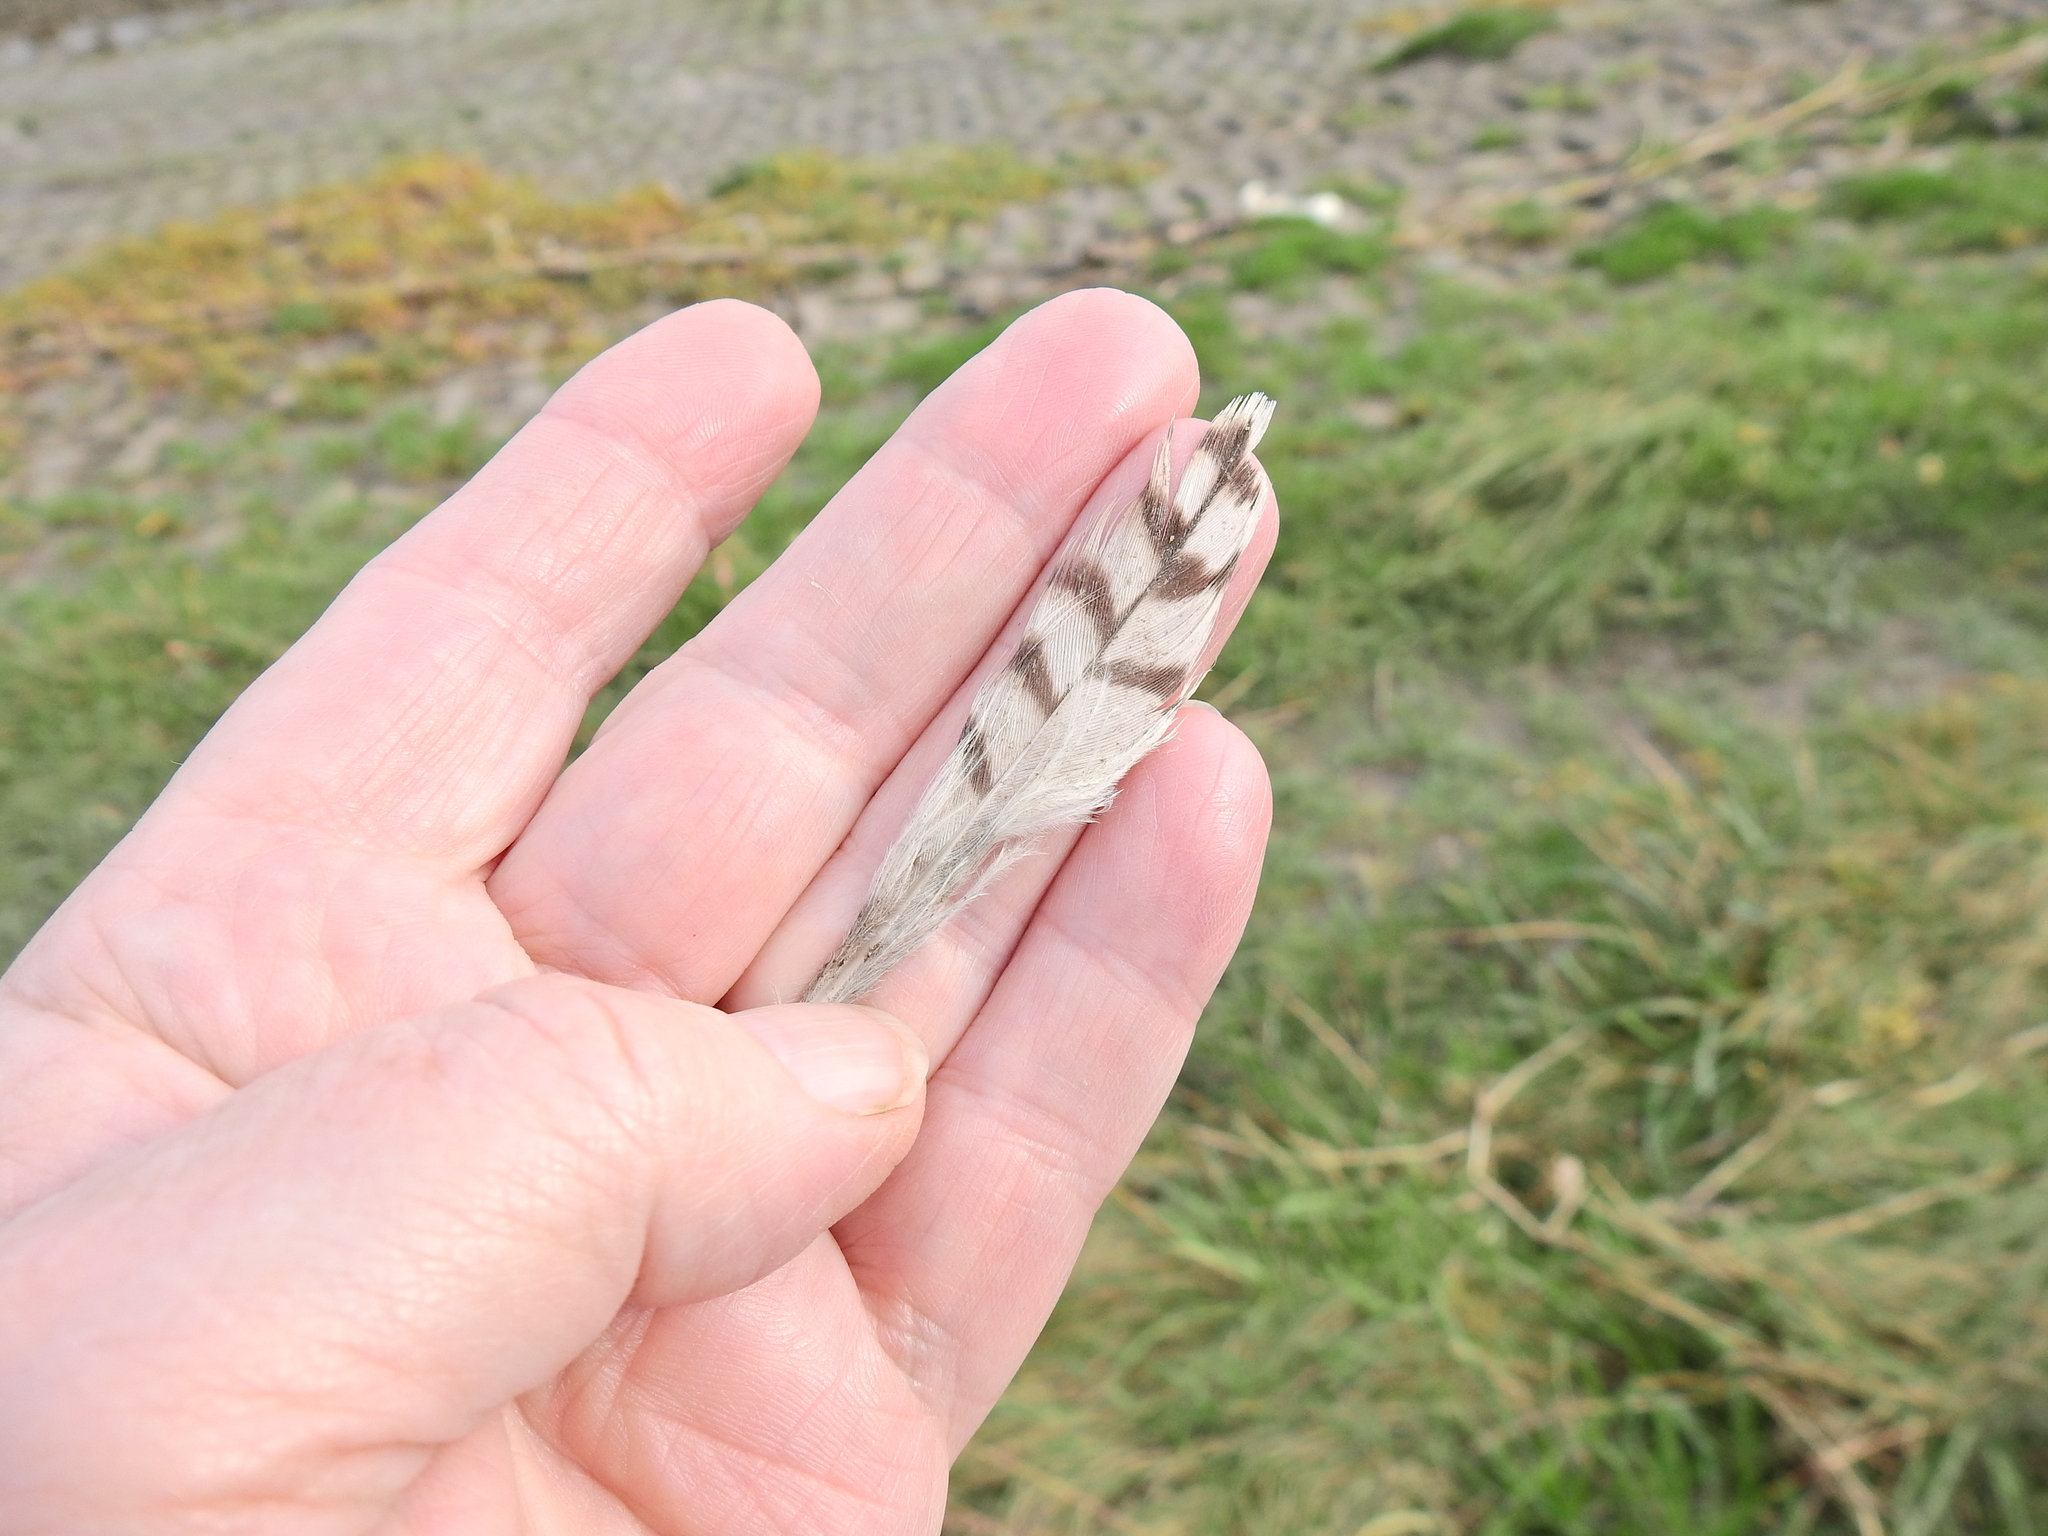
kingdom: Animalia
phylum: Chordata
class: Aves
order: Charadriiformes
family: Scolopacidae
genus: Numenius
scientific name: Numenius arquata
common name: Eurasian curlew
